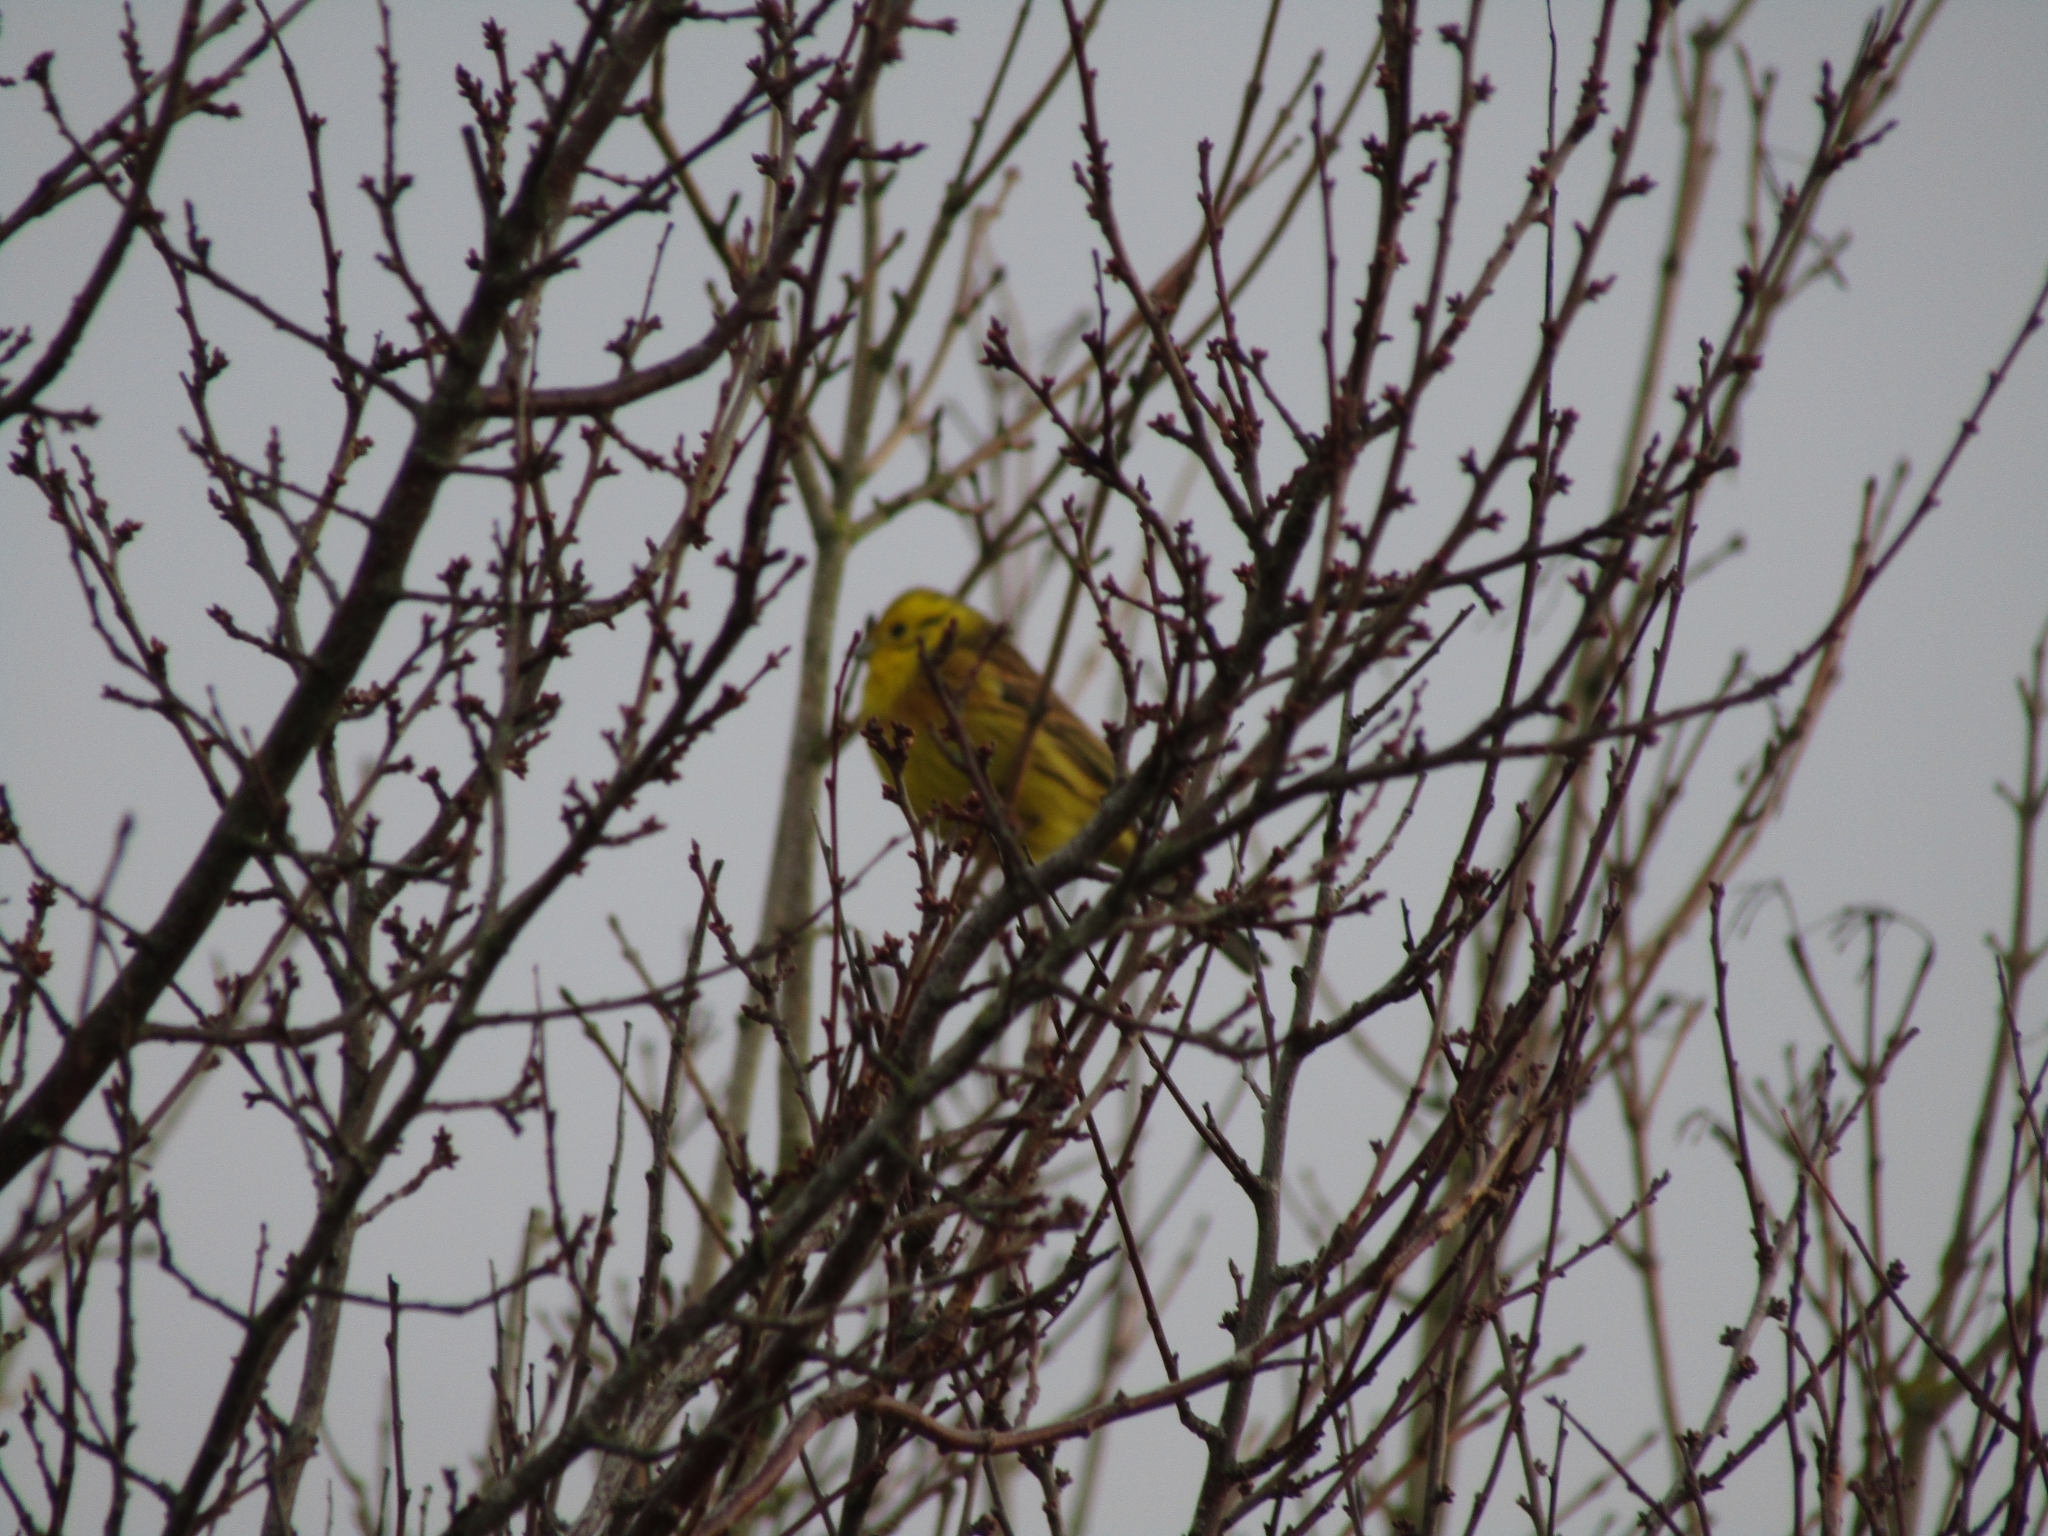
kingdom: Animalia
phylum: Chordata
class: Aves
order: Passeriformes
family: Emberizidae
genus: Emberiza
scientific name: Emberiza citrinella
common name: Yellowhammer
